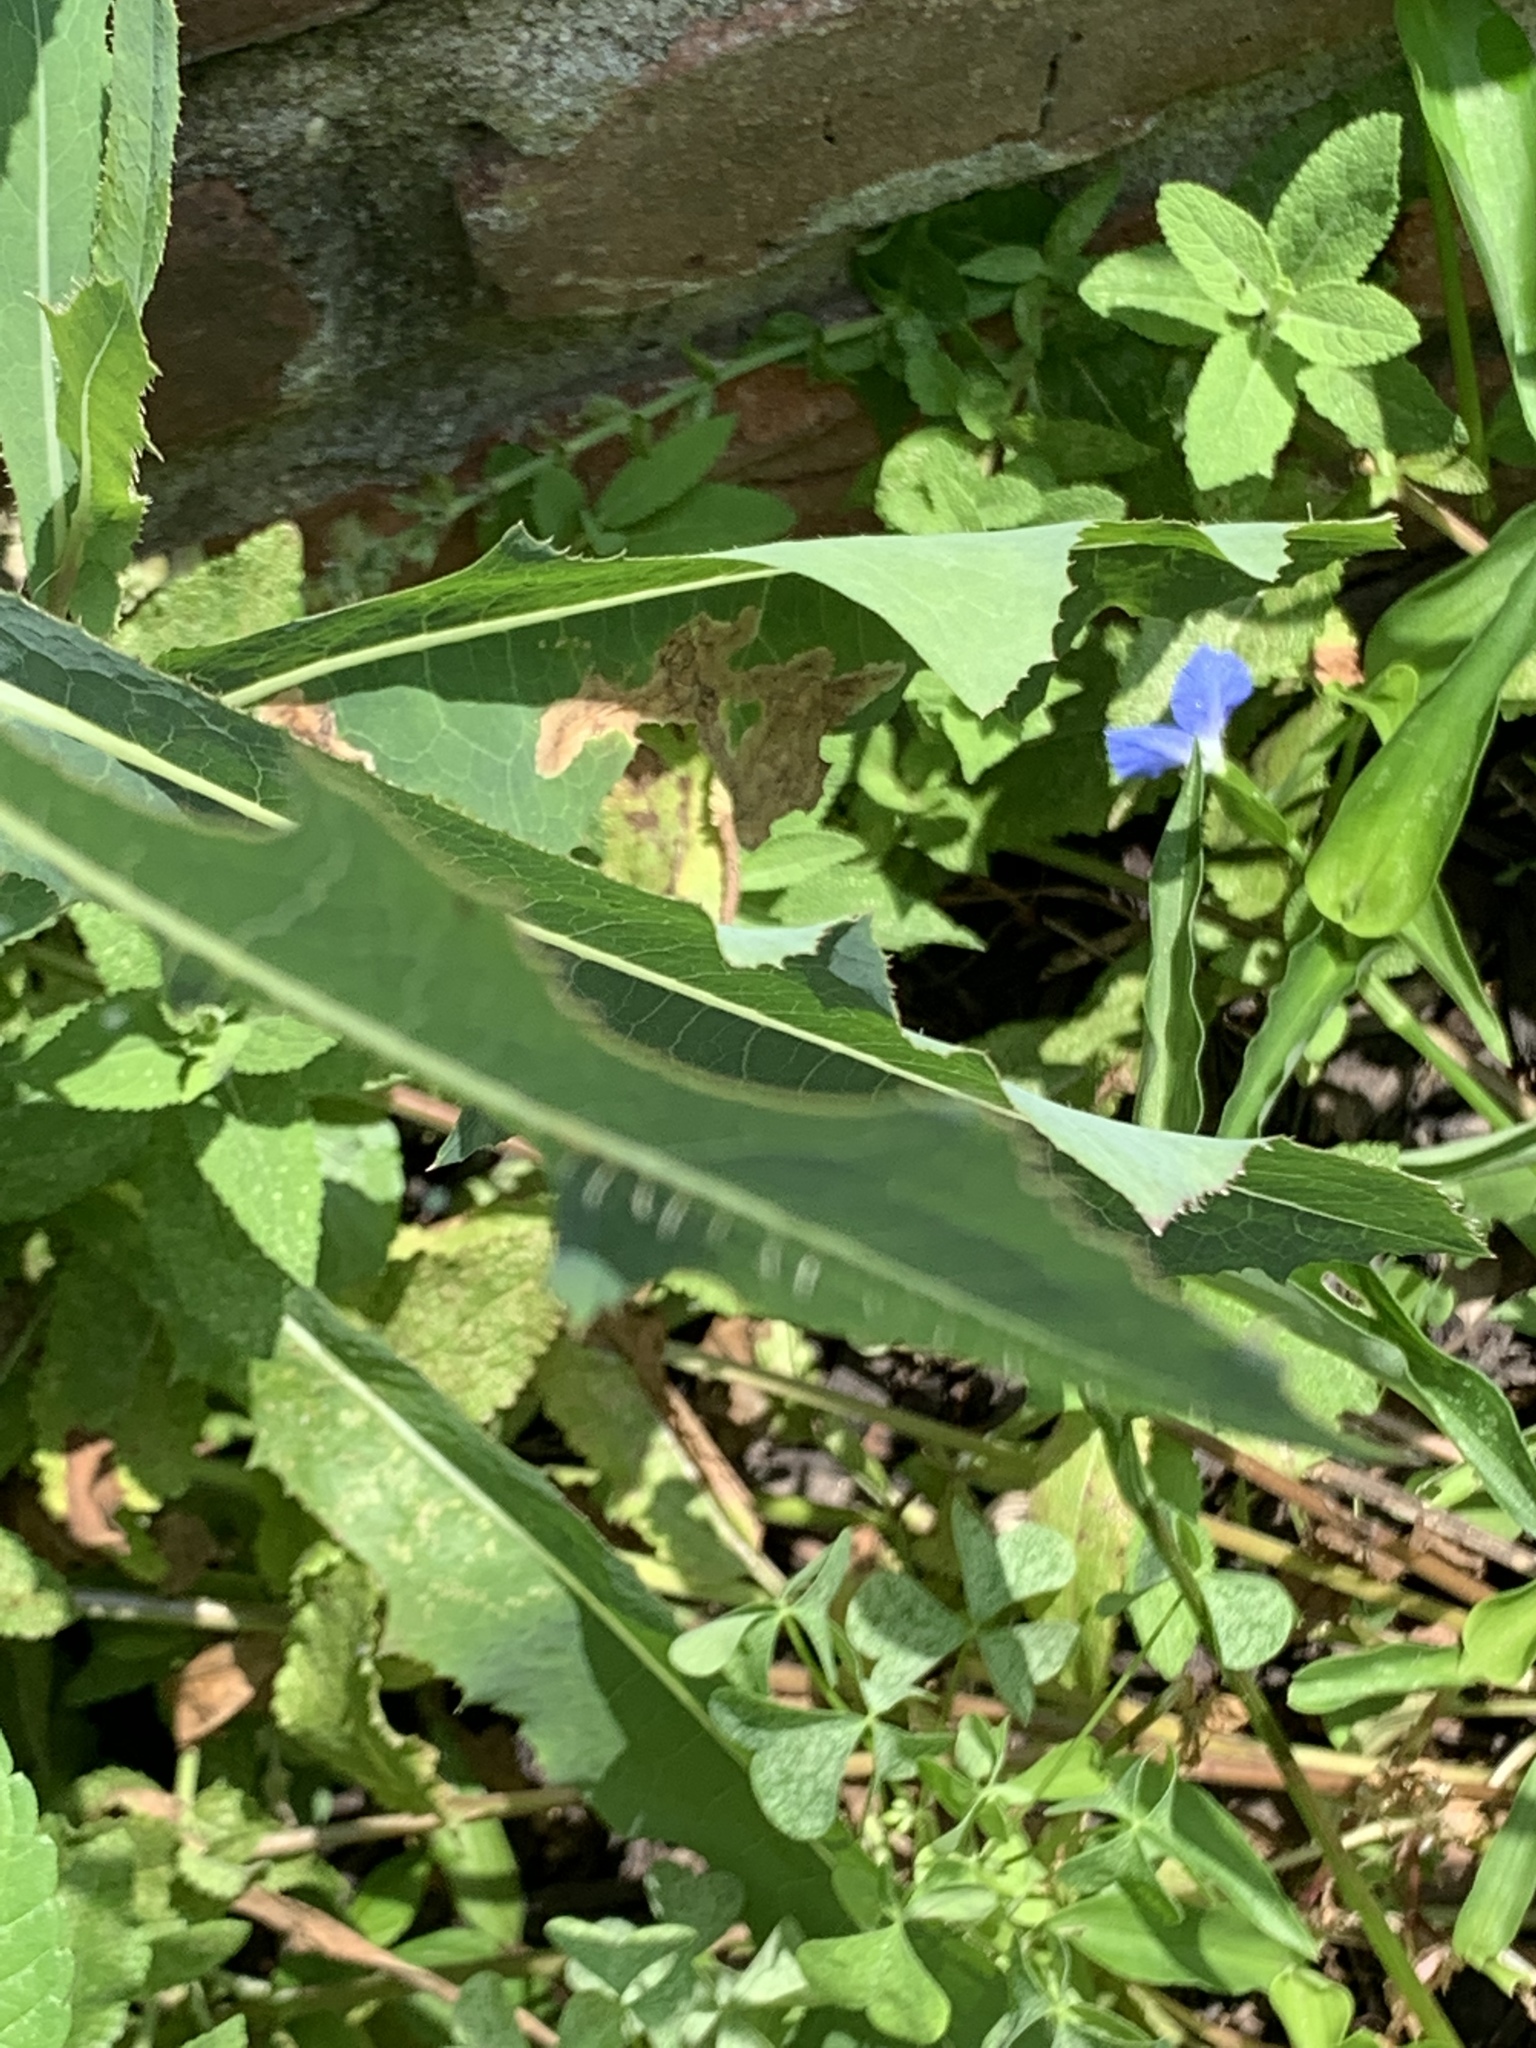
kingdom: Plantae
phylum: Tracheophyta
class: Magnoliopsida
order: Asterales
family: Asteraceae
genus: Lactuca
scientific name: Lactuca serriola
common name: Prickly lettuce
